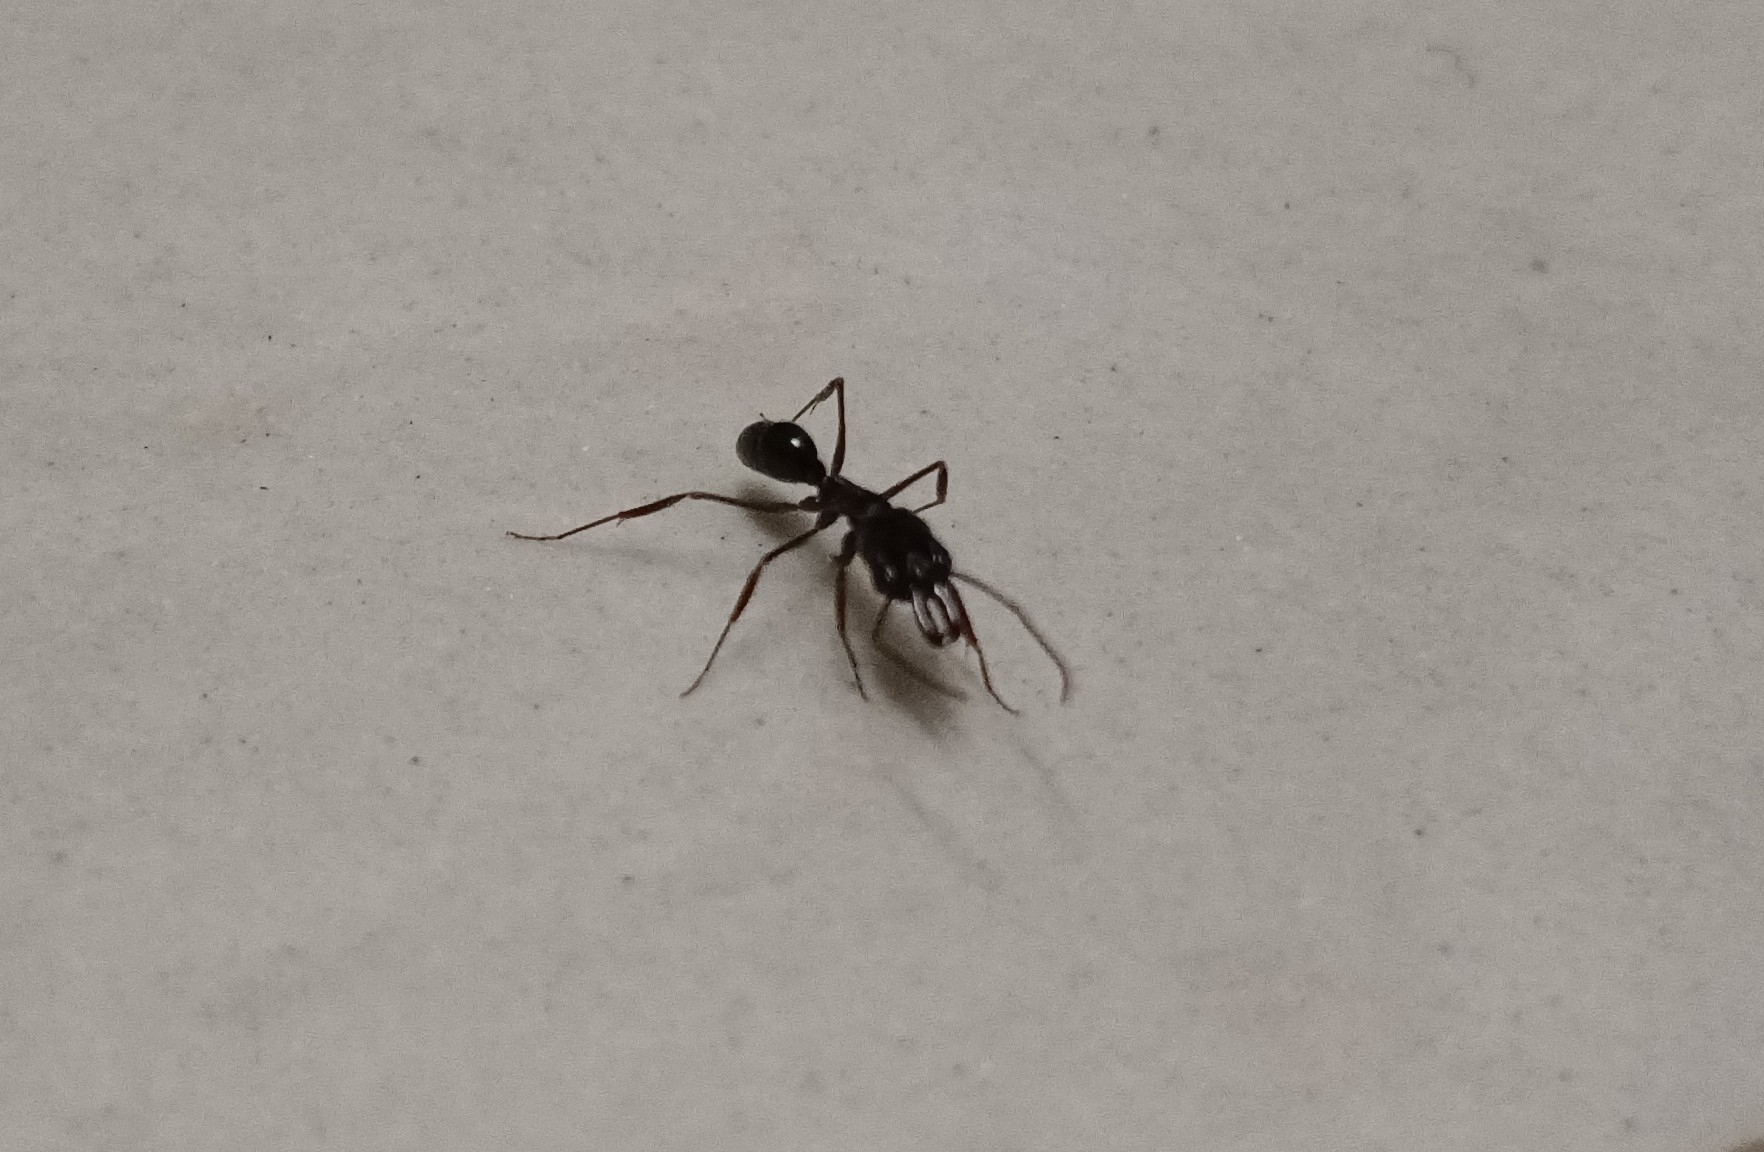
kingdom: Animalia
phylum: Arthropoda
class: Insecta
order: Hymenoptera
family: Formicidae
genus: Odontomachus
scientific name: Odontomachus simillimus
